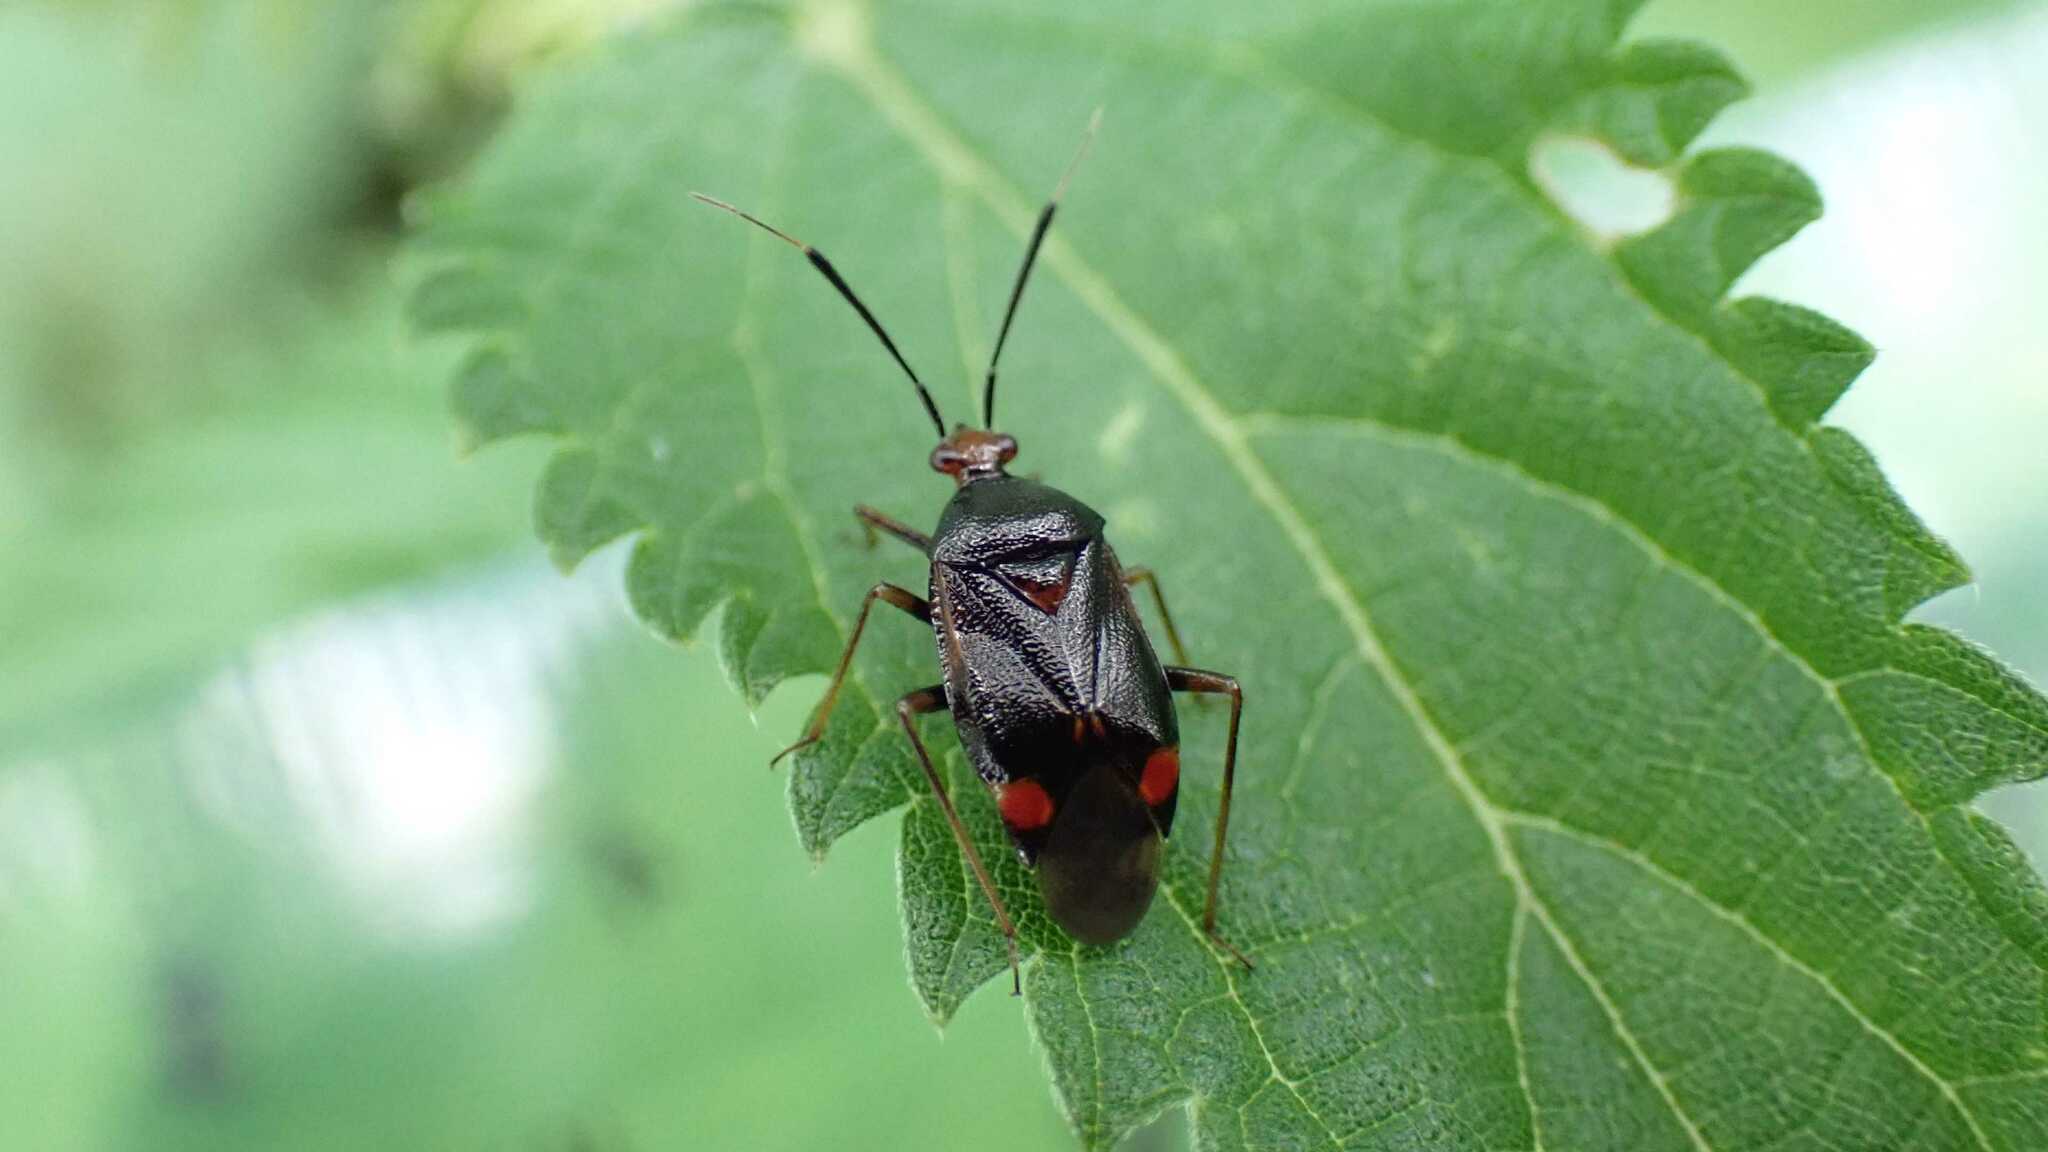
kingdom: Animalia
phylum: Arthropoda
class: Insecta
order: Hemiptera
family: Miridae
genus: Deraeocoris
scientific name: Deraeocoris ruber
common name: Plant bug
